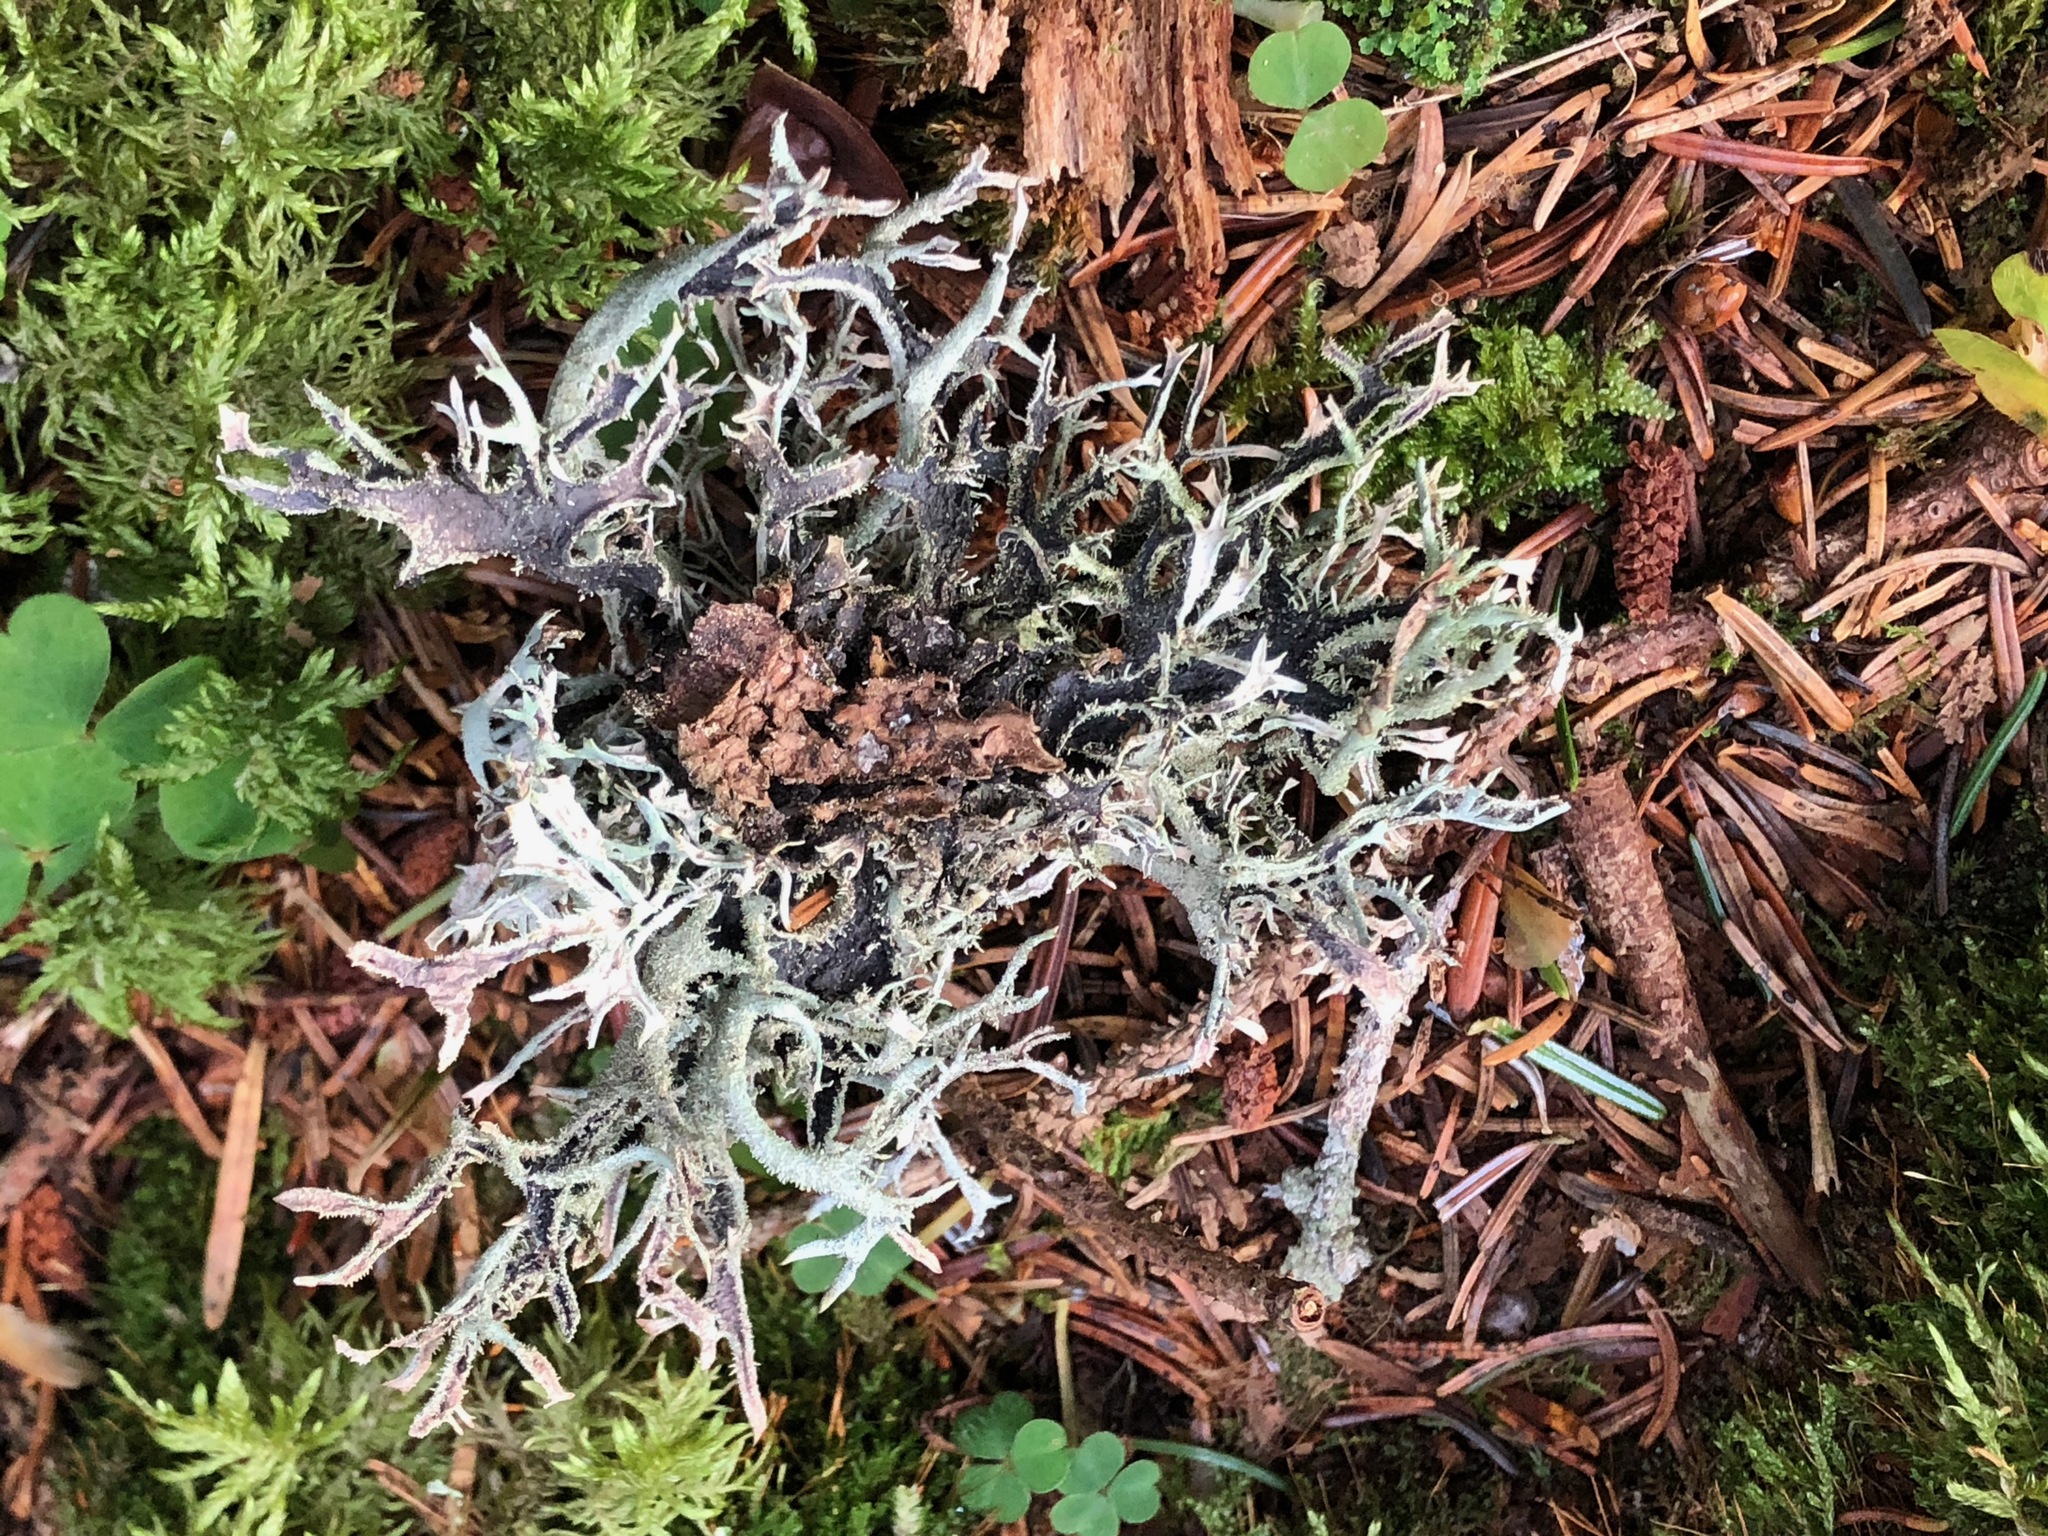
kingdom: Fungi
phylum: Ascomycota
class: Lecanoromycetes
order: Lecanorales
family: Parmeliaceae
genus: Pseudevernia
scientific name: Pseudevernia furfuracea
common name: Tree moss
